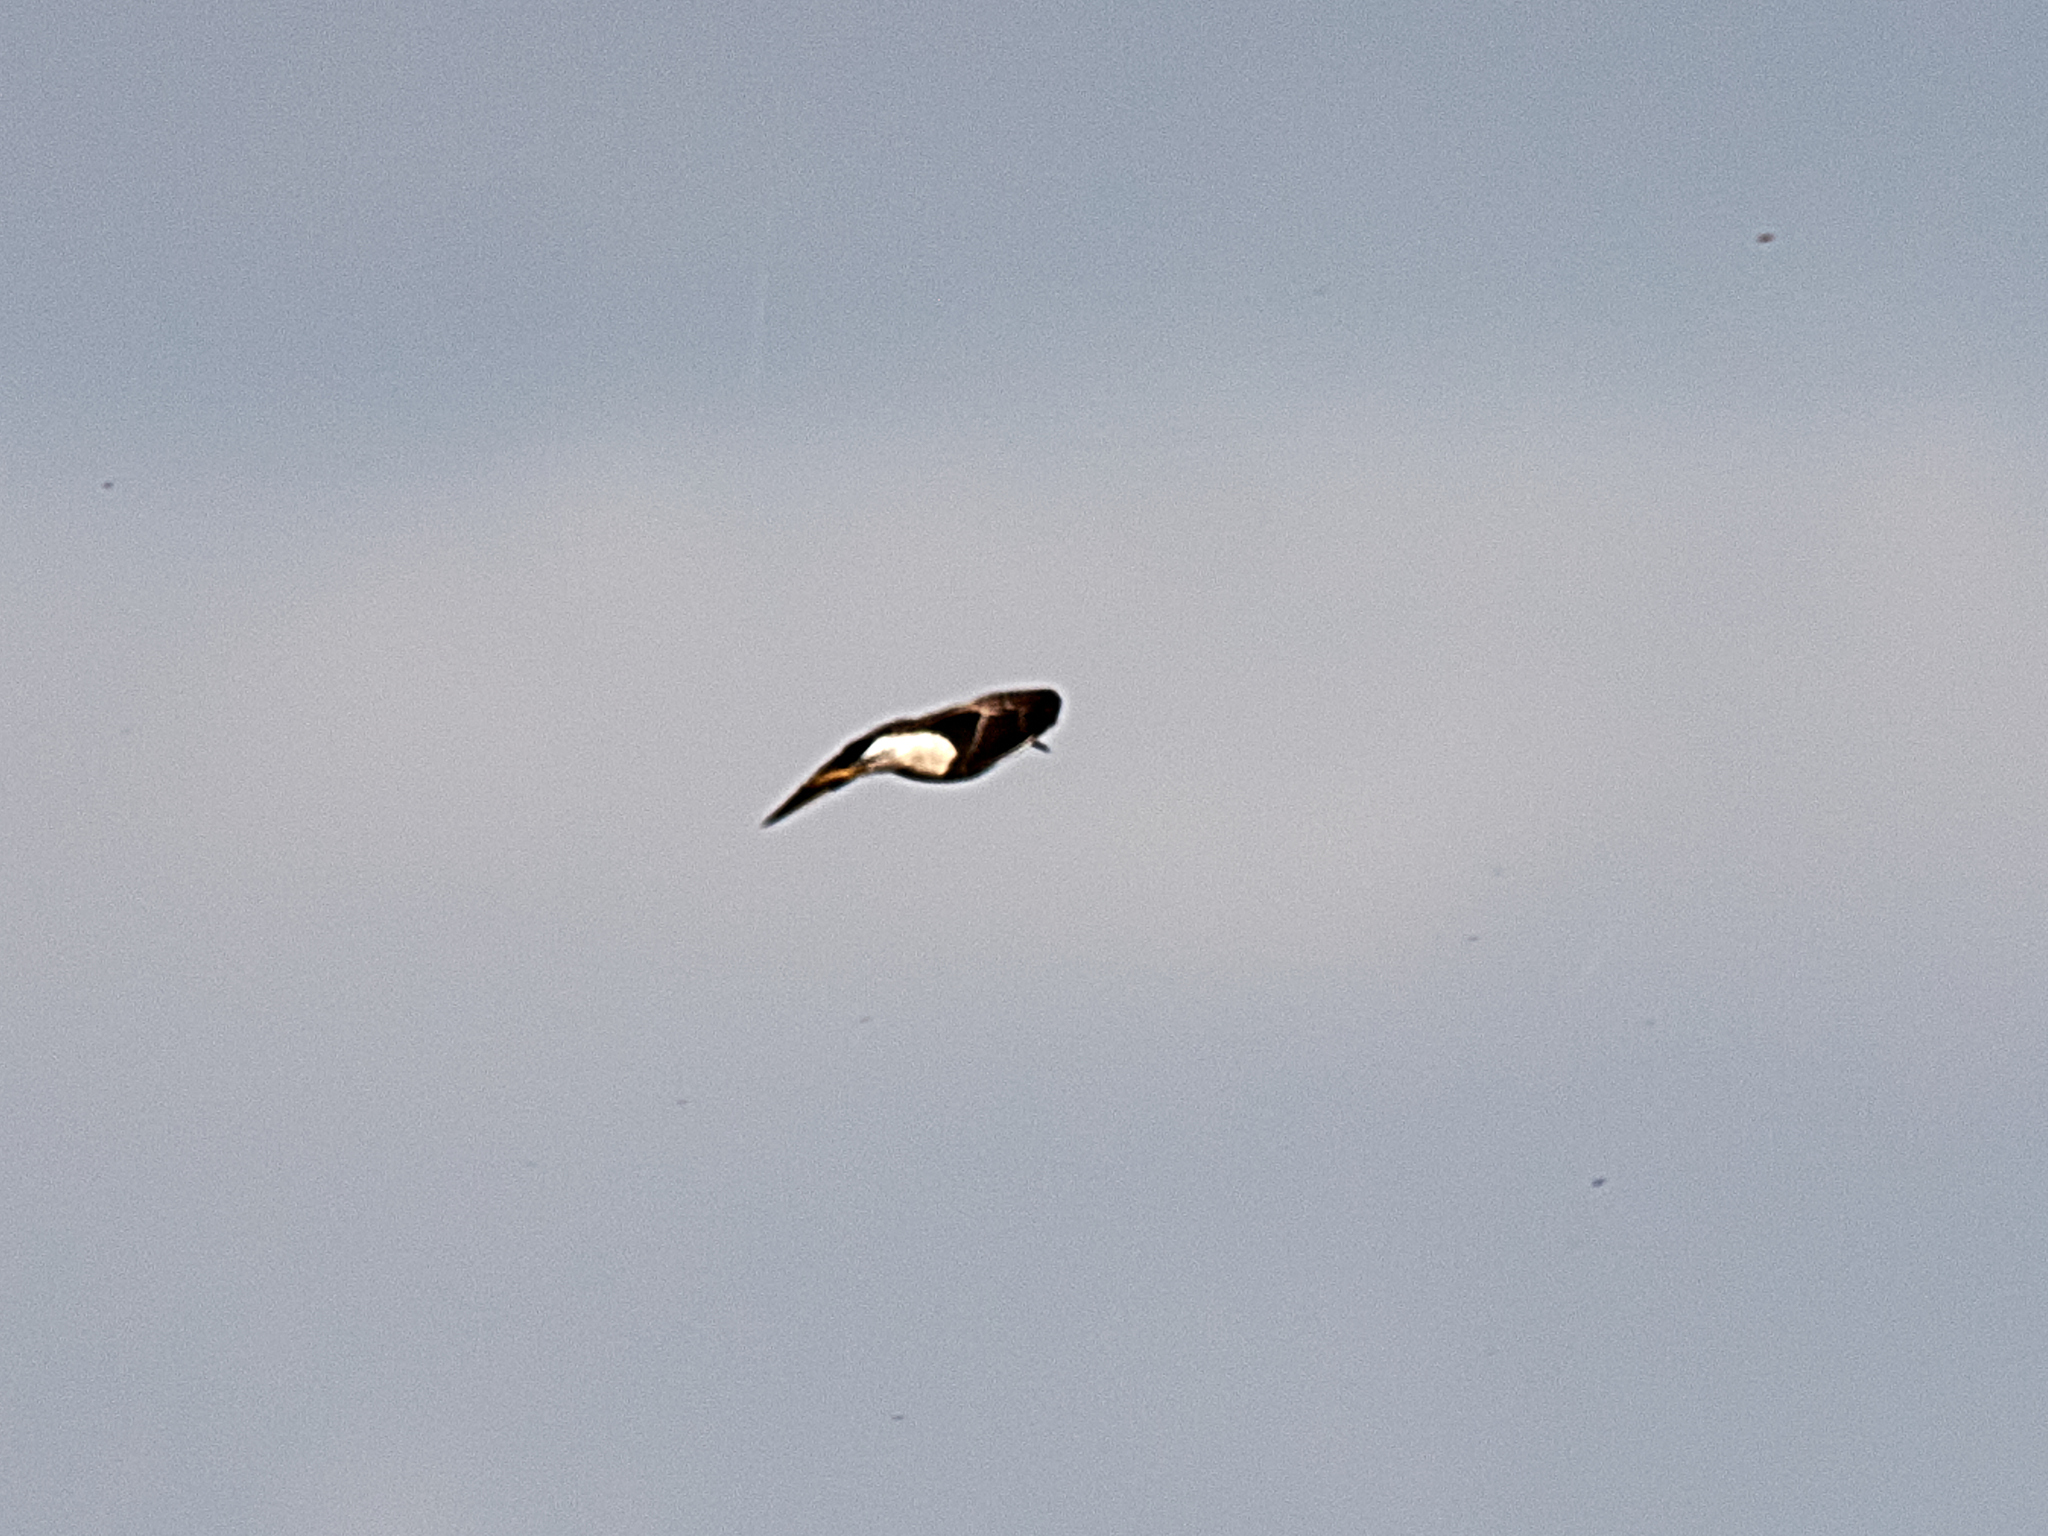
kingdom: Animalia
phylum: Chordata
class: Aves
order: Charadriiformes
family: Charadriidae
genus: Vanellus
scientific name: Vanellus vanellus
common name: Northern lapwing
